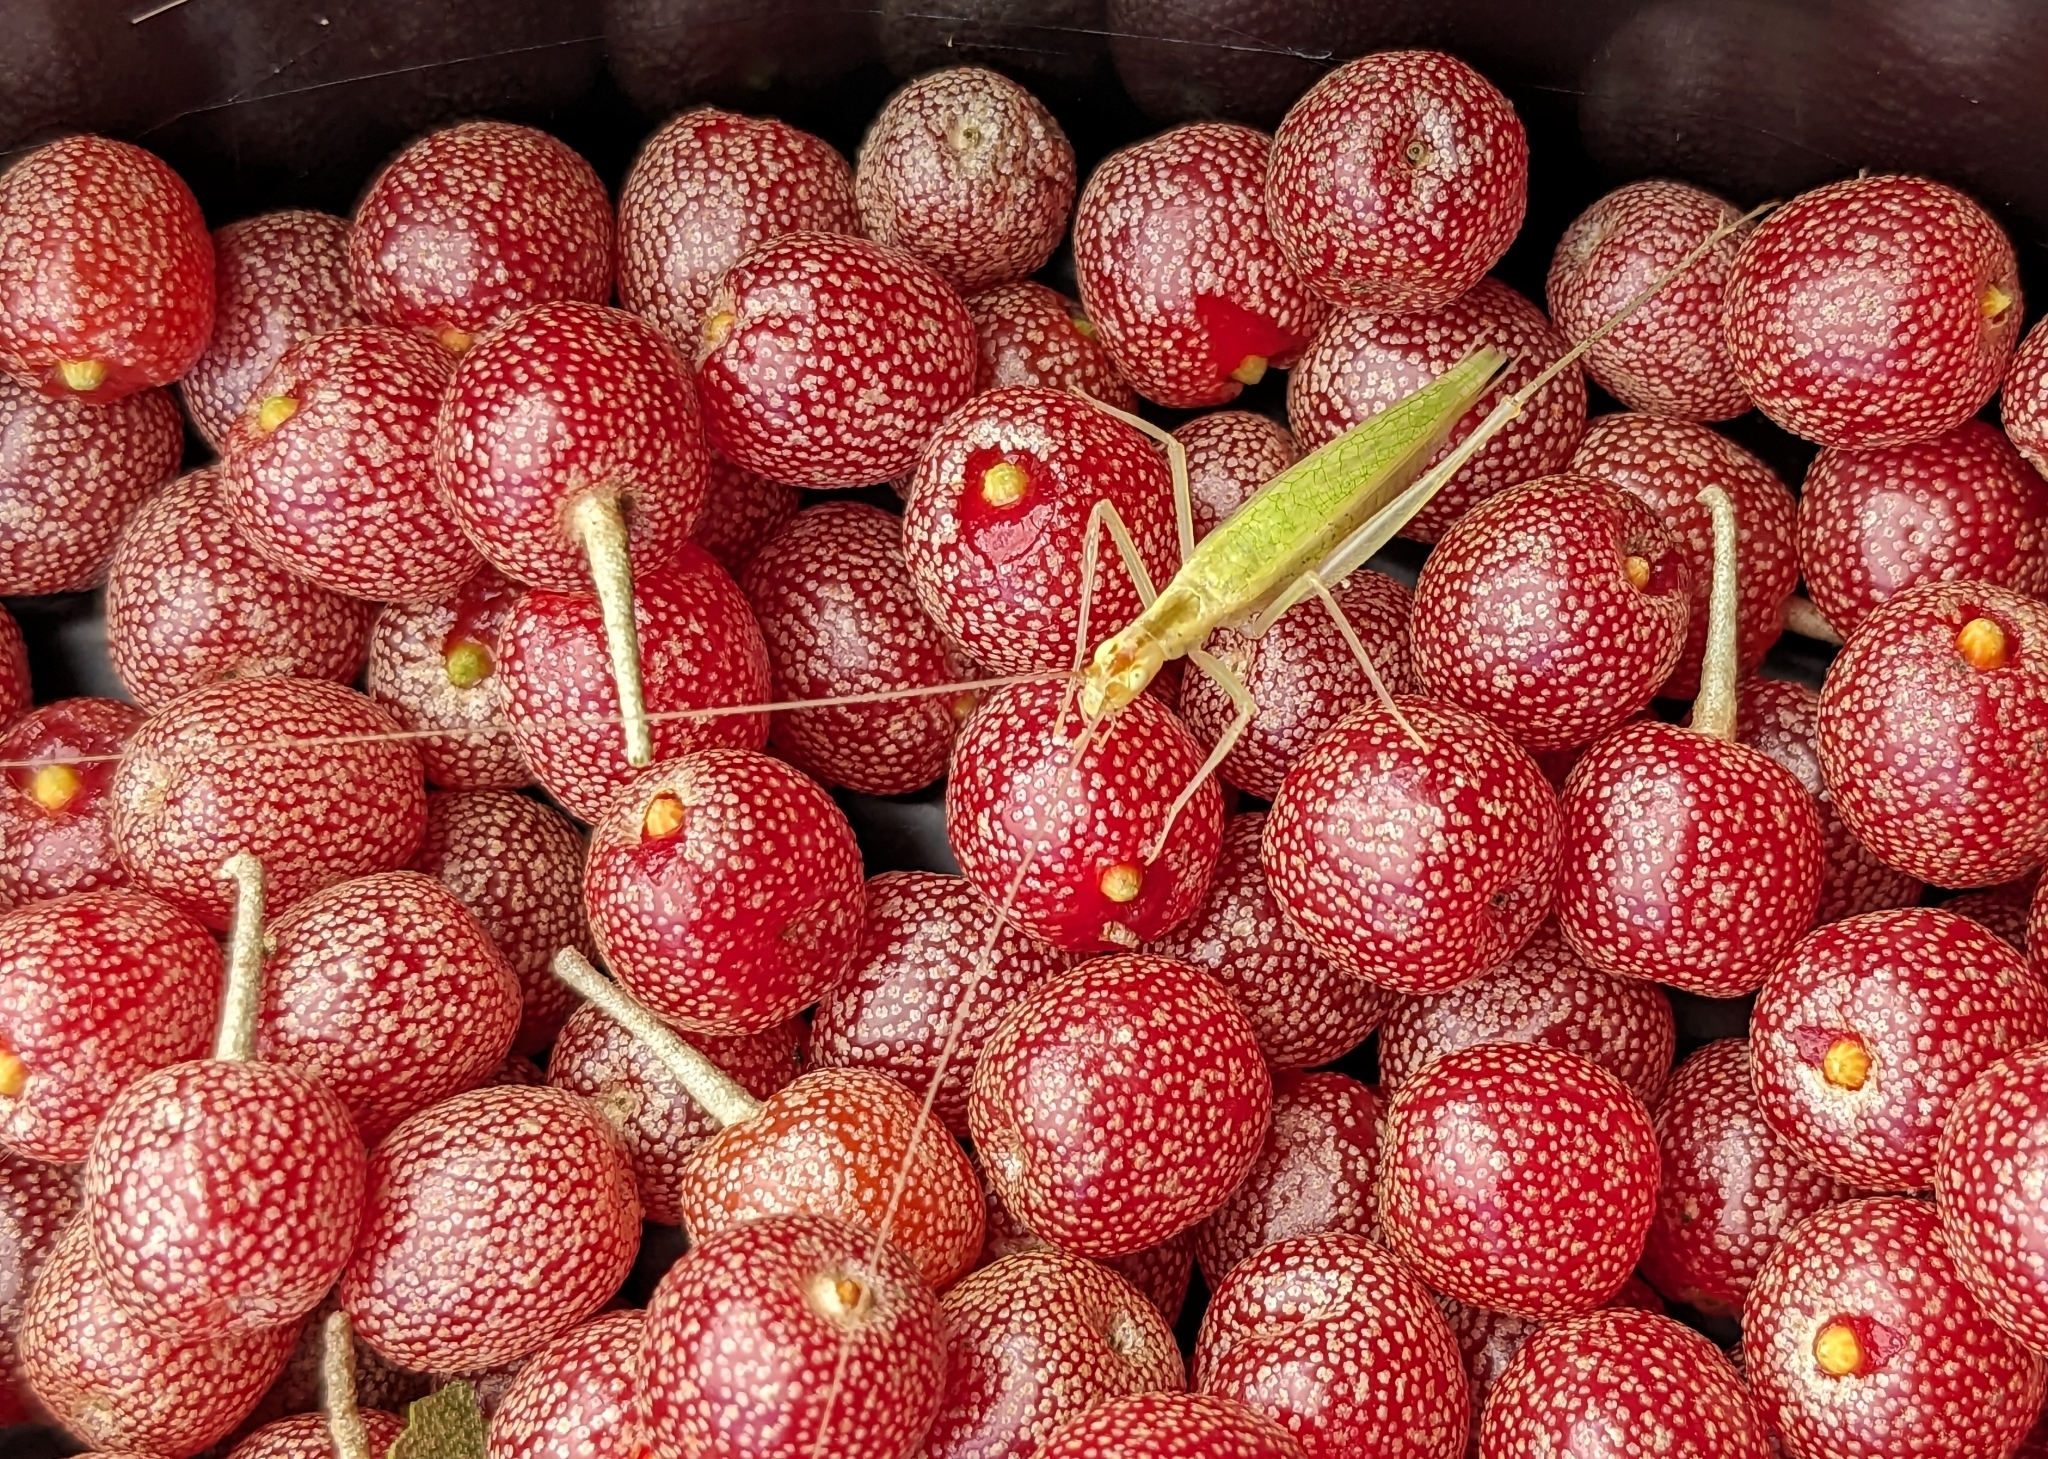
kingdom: Animalia
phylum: Arthropoda
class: Insecta
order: Orthoptera
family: Gryllidae
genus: Oecanthus
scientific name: Oecanthus niveus
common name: Narrow-winged tree cricket
